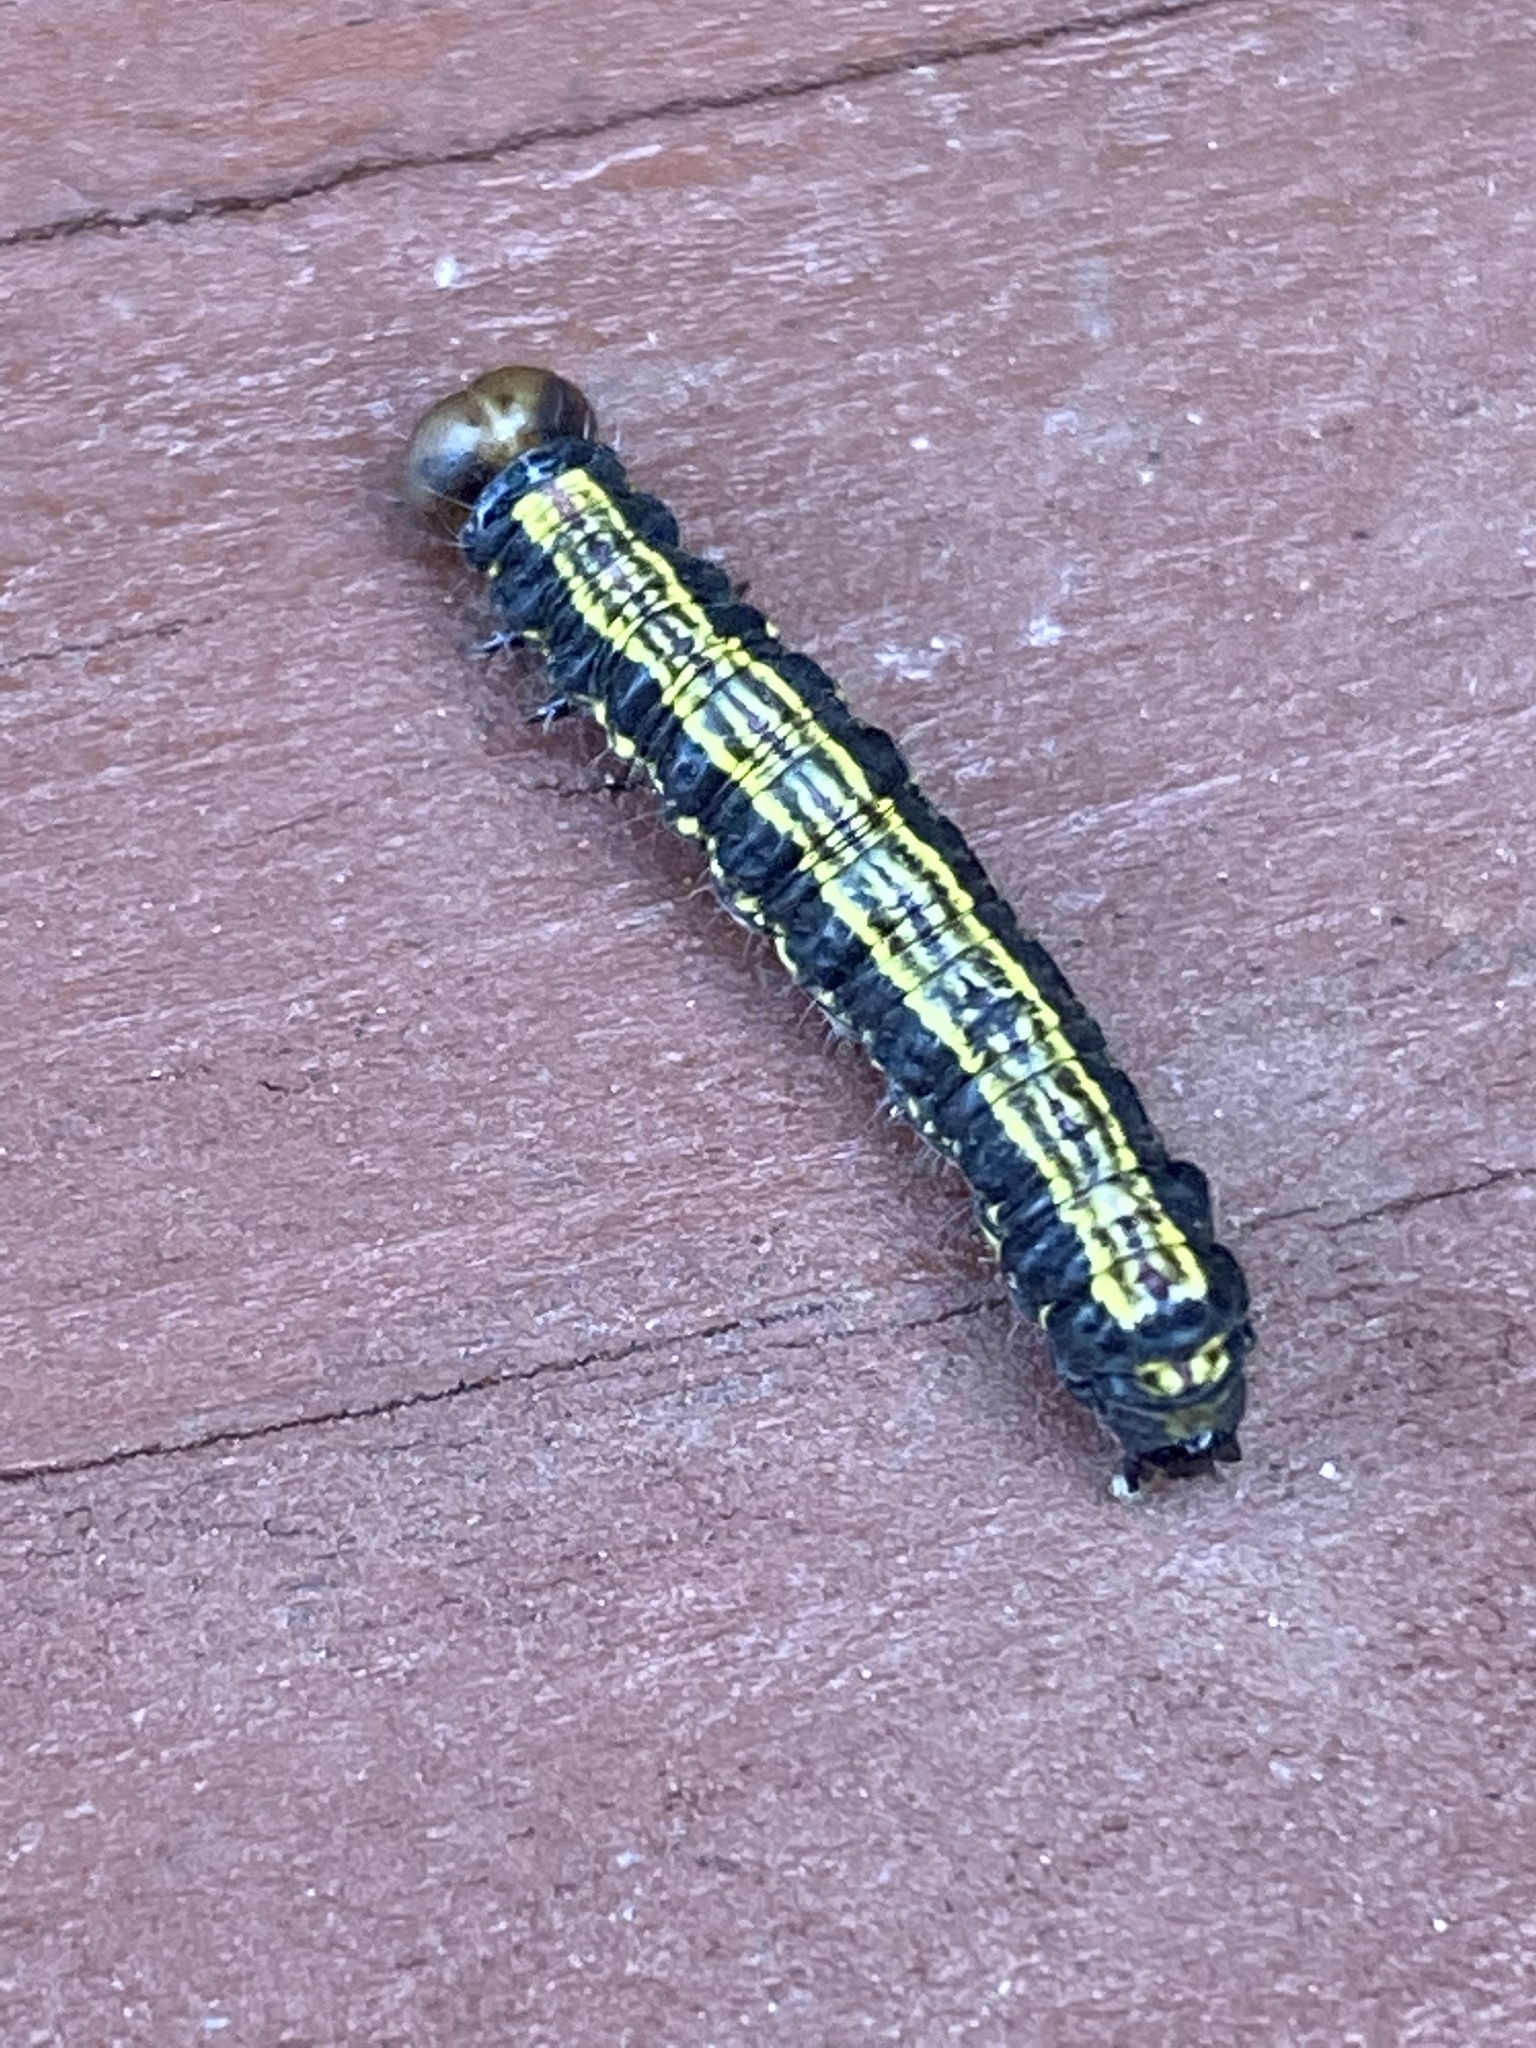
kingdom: Animalia
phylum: Arthropoda
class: Insecta
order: Lepidoptera
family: Notodontidae
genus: Phryganidia
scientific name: Phryganidia californica
